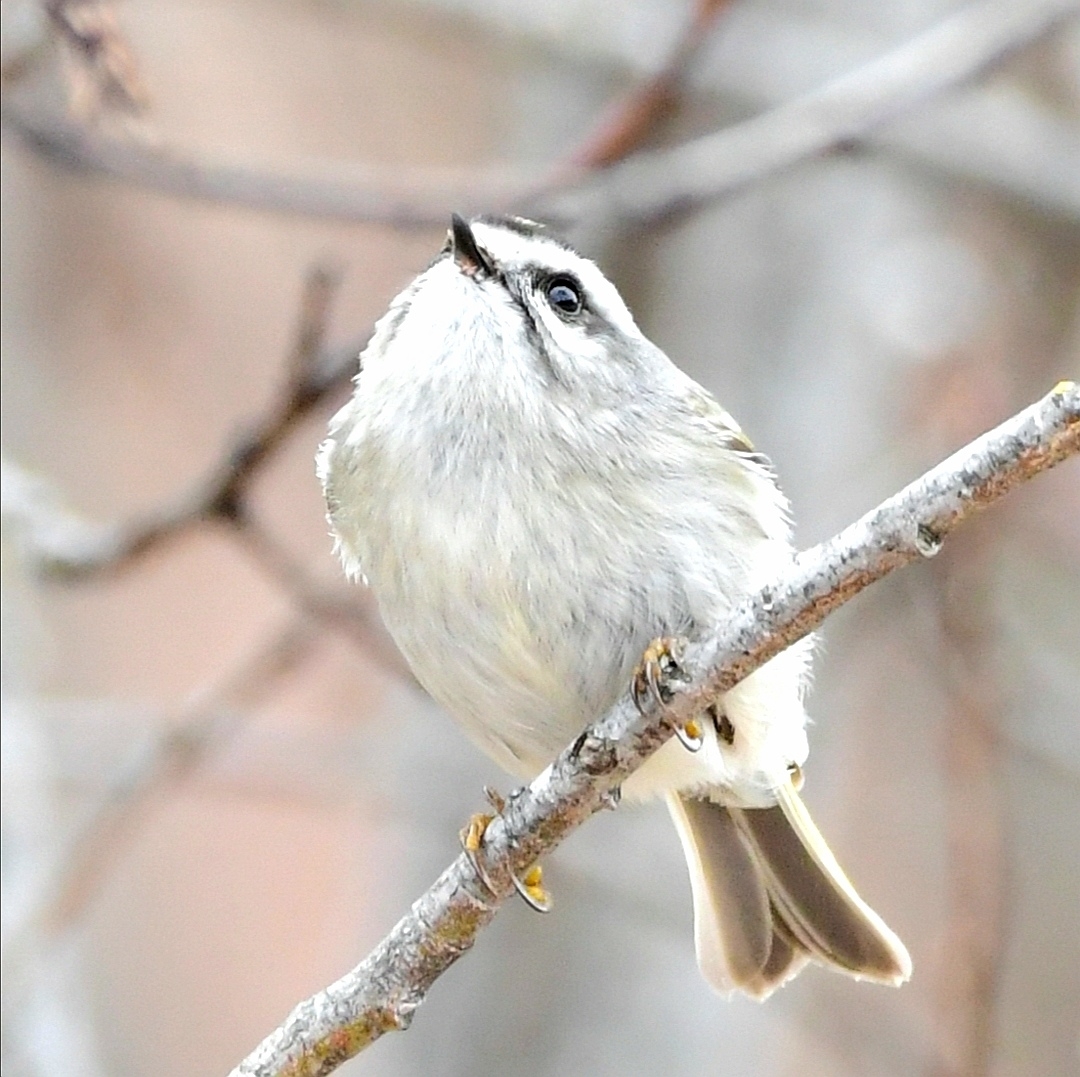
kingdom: Animalia
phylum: Chordata
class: Aves
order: Passeriformes
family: Regulidae
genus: Regulus
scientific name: Regulus satrapa
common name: Golden-crowned kinglet
